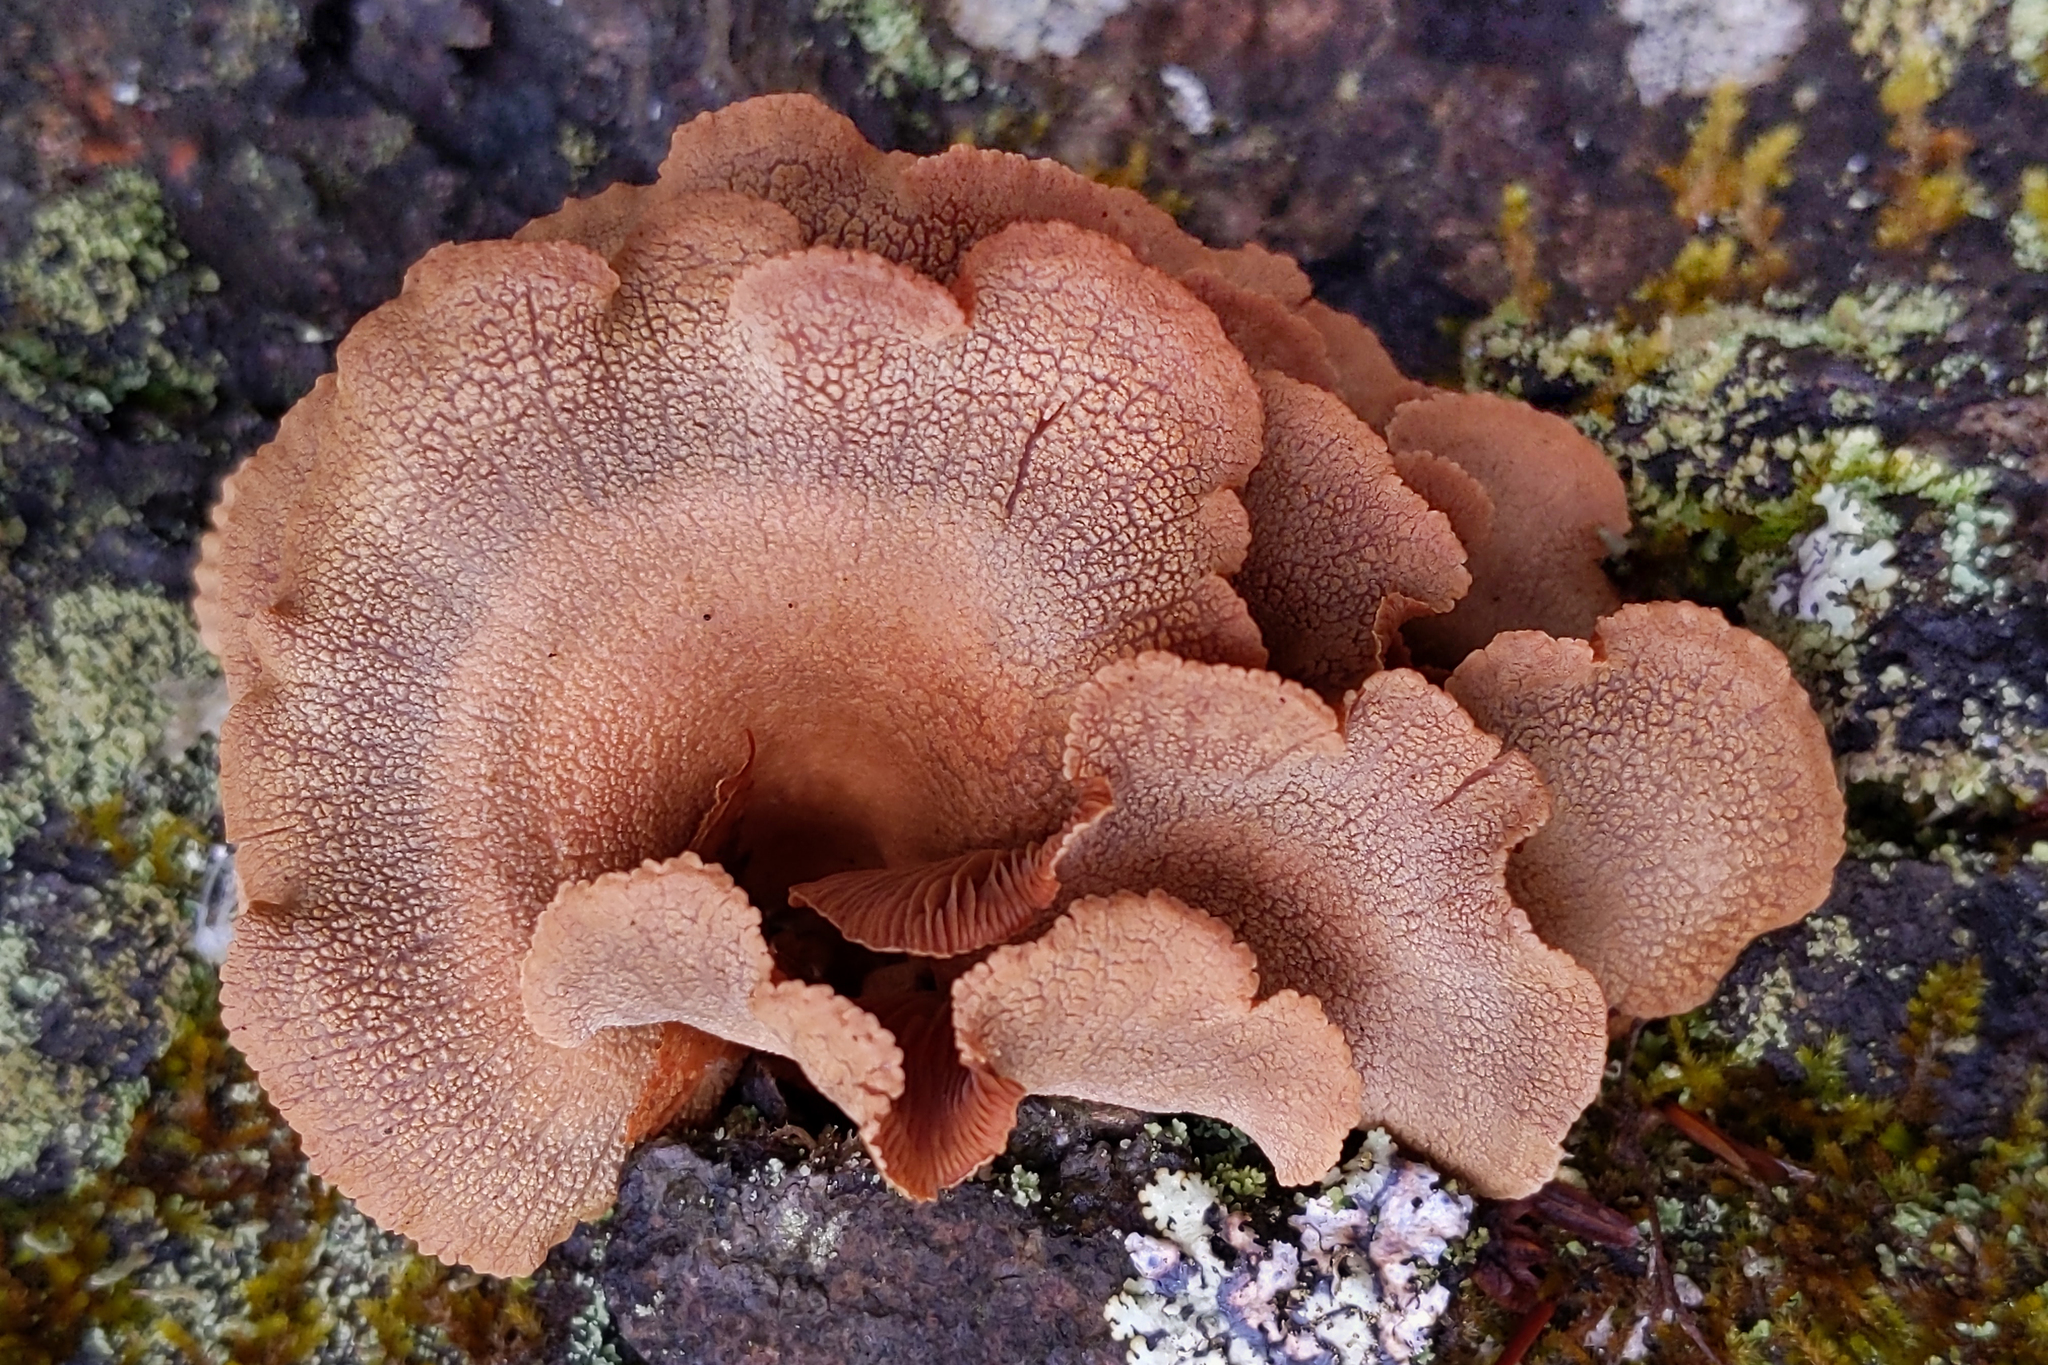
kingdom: Fungi
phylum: Basidiomycota
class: Agaricomycetes
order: Agaricales
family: Mycenaceae
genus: Panellus
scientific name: Panellus stipticus
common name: Bitter oysterling
